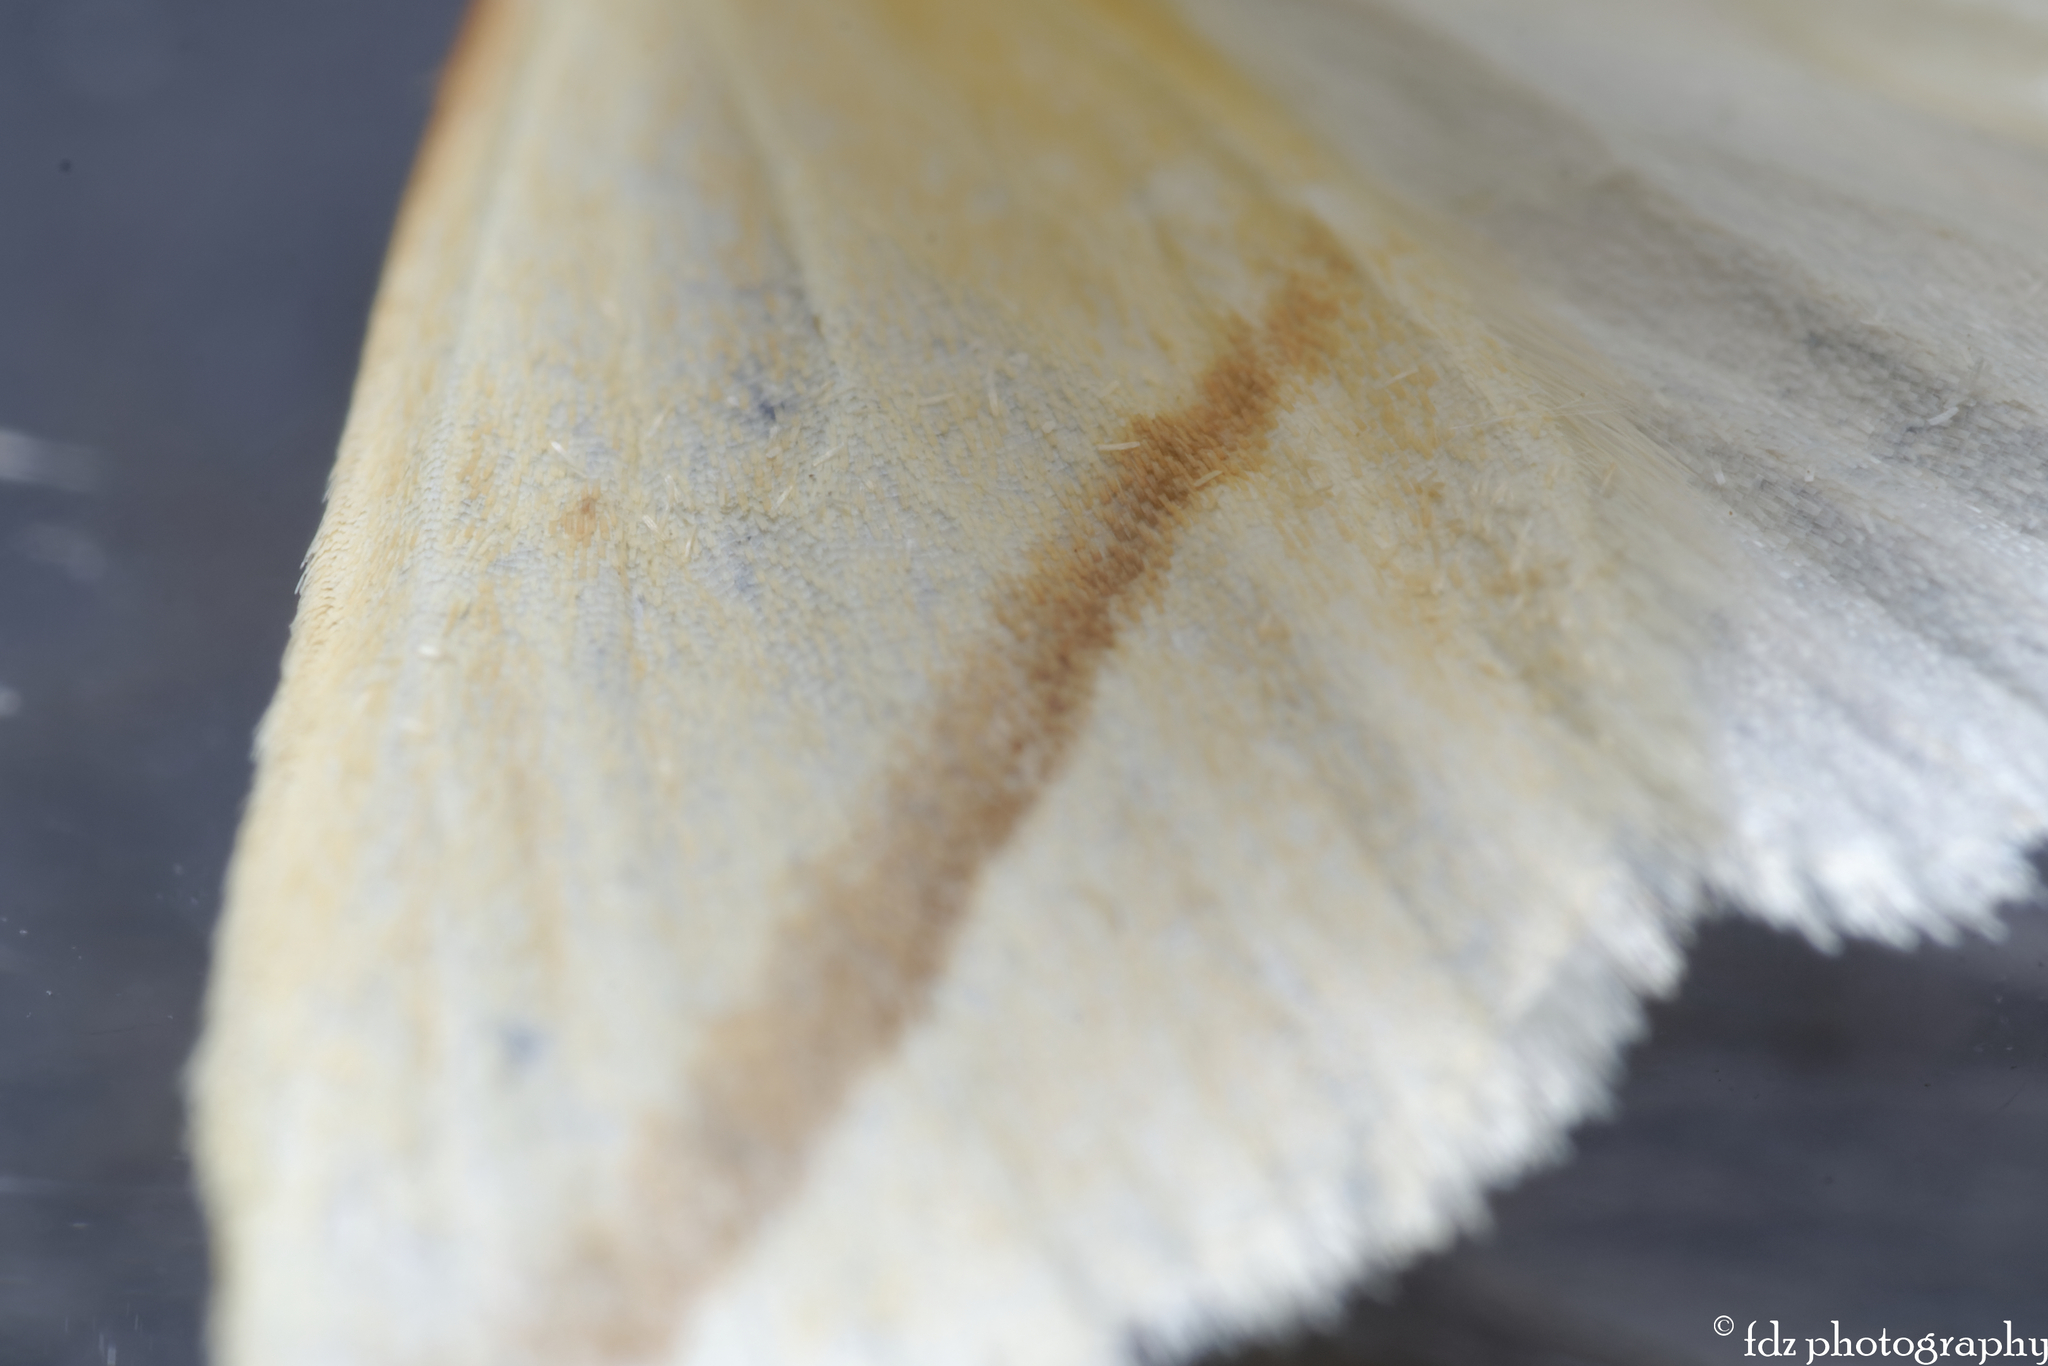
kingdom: Animalia
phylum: Arthropoda
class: Insecta
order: Lepidoptera
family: Geometridae
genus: Rhodometra
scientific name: Rhodometra sacraria
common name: Vestal
